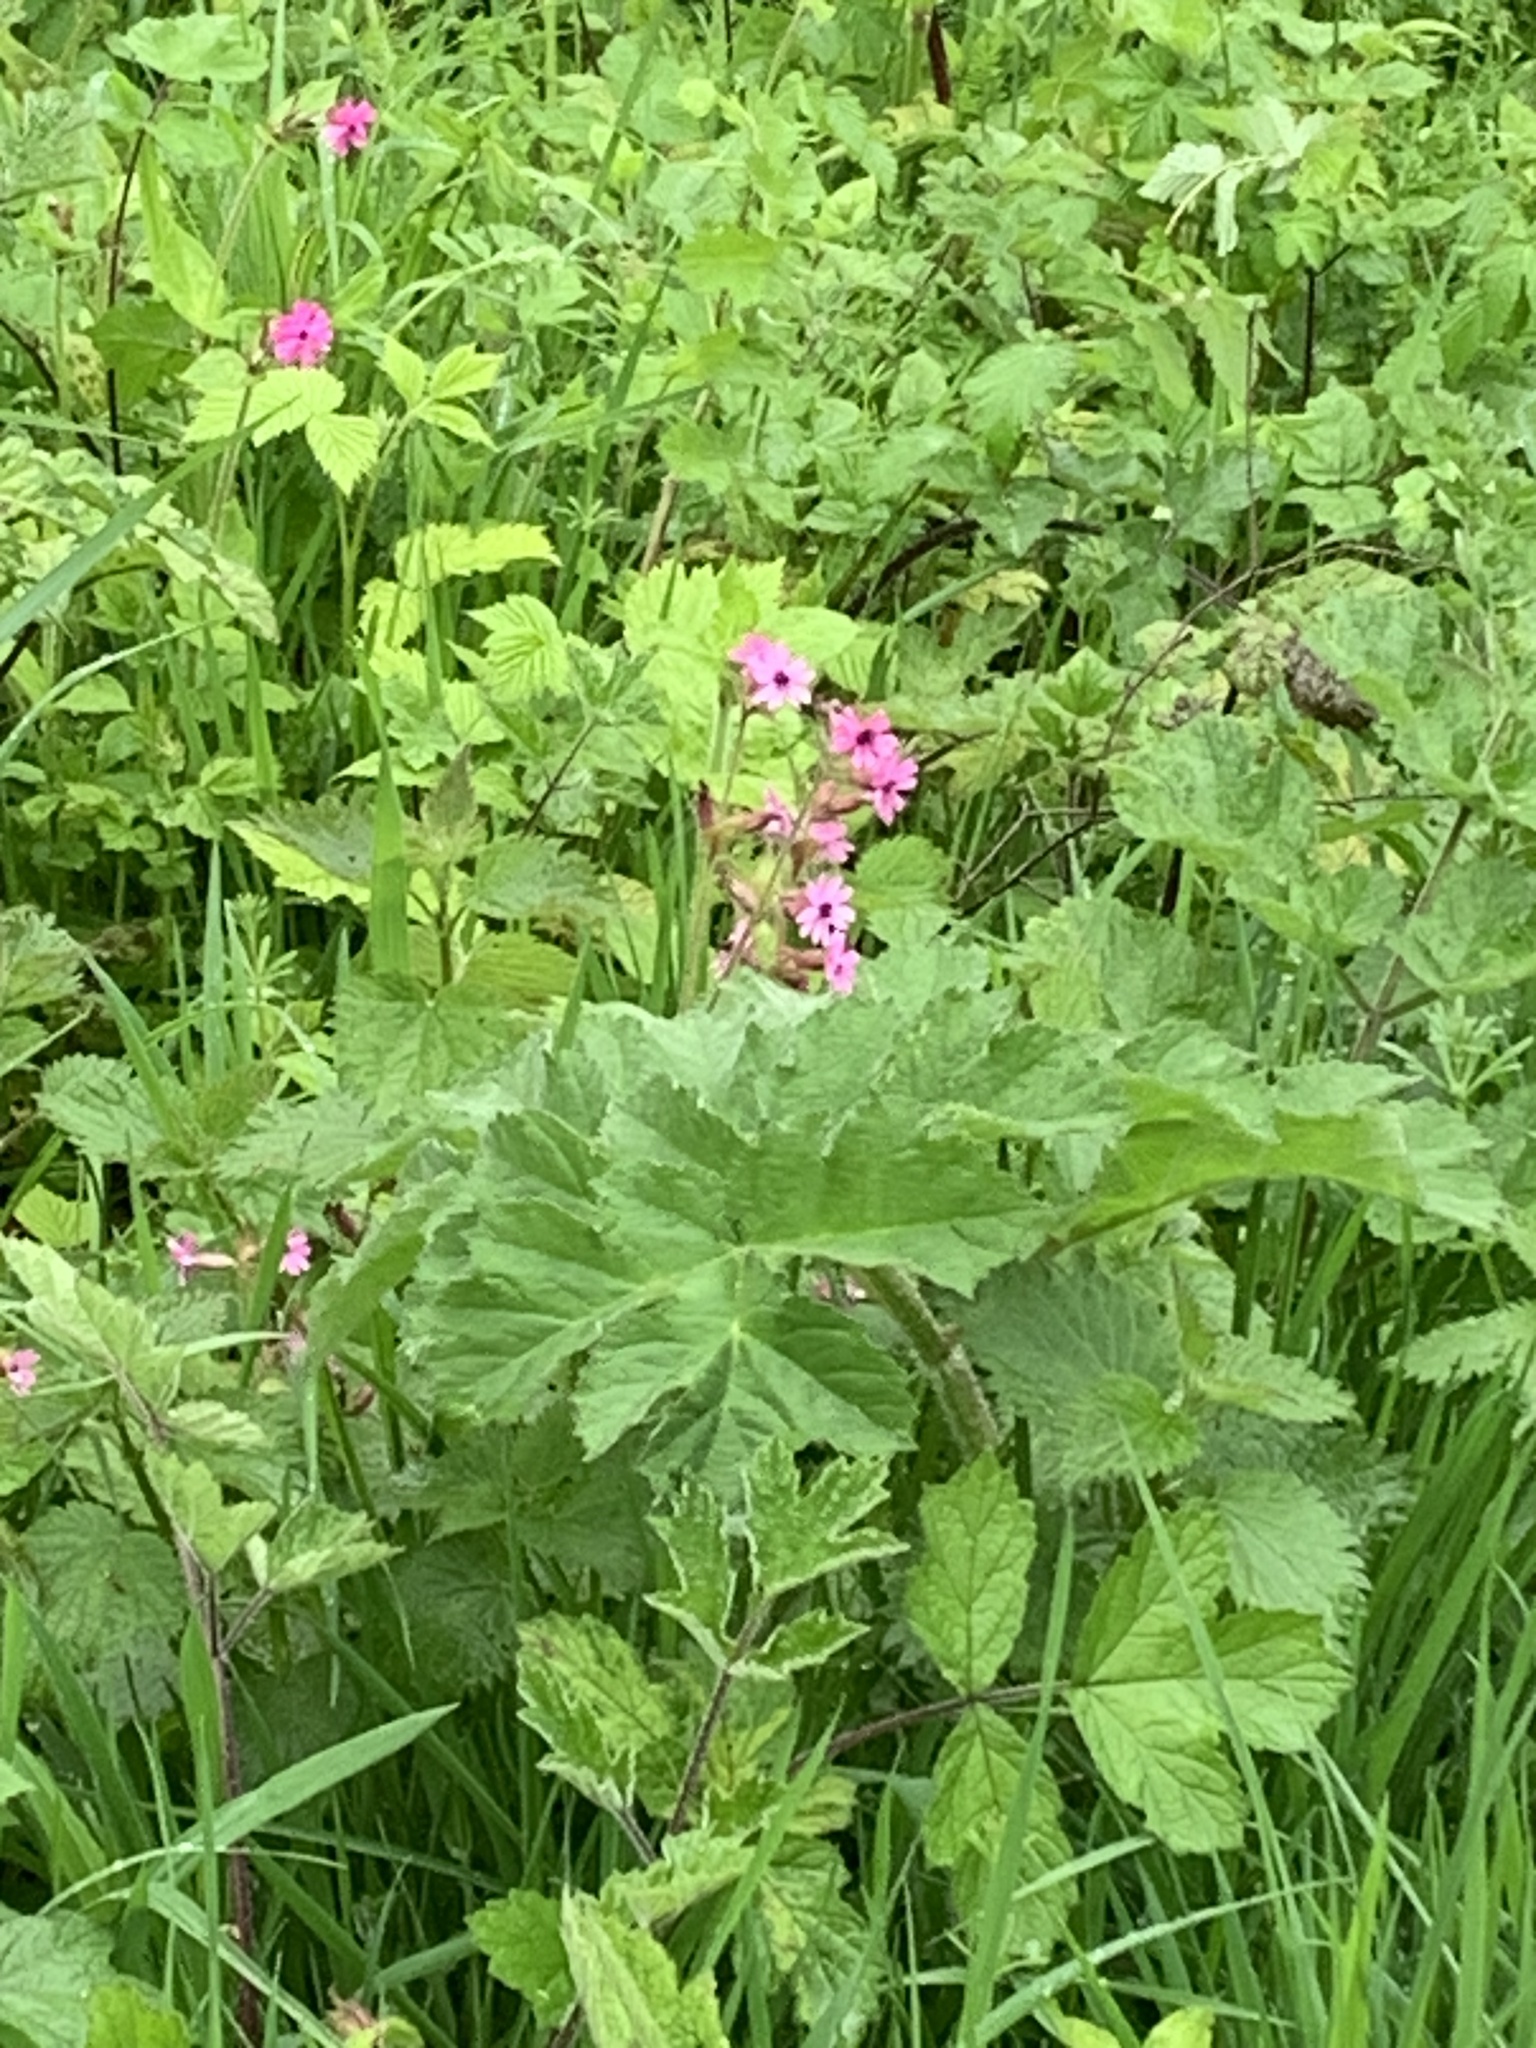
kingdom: Plantae
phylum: Tracheophyta
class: Magnoliopsida
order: Caryophyllales
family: Caryophyllaceae
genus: Silene
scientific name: Silene dioica
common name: Red campion
